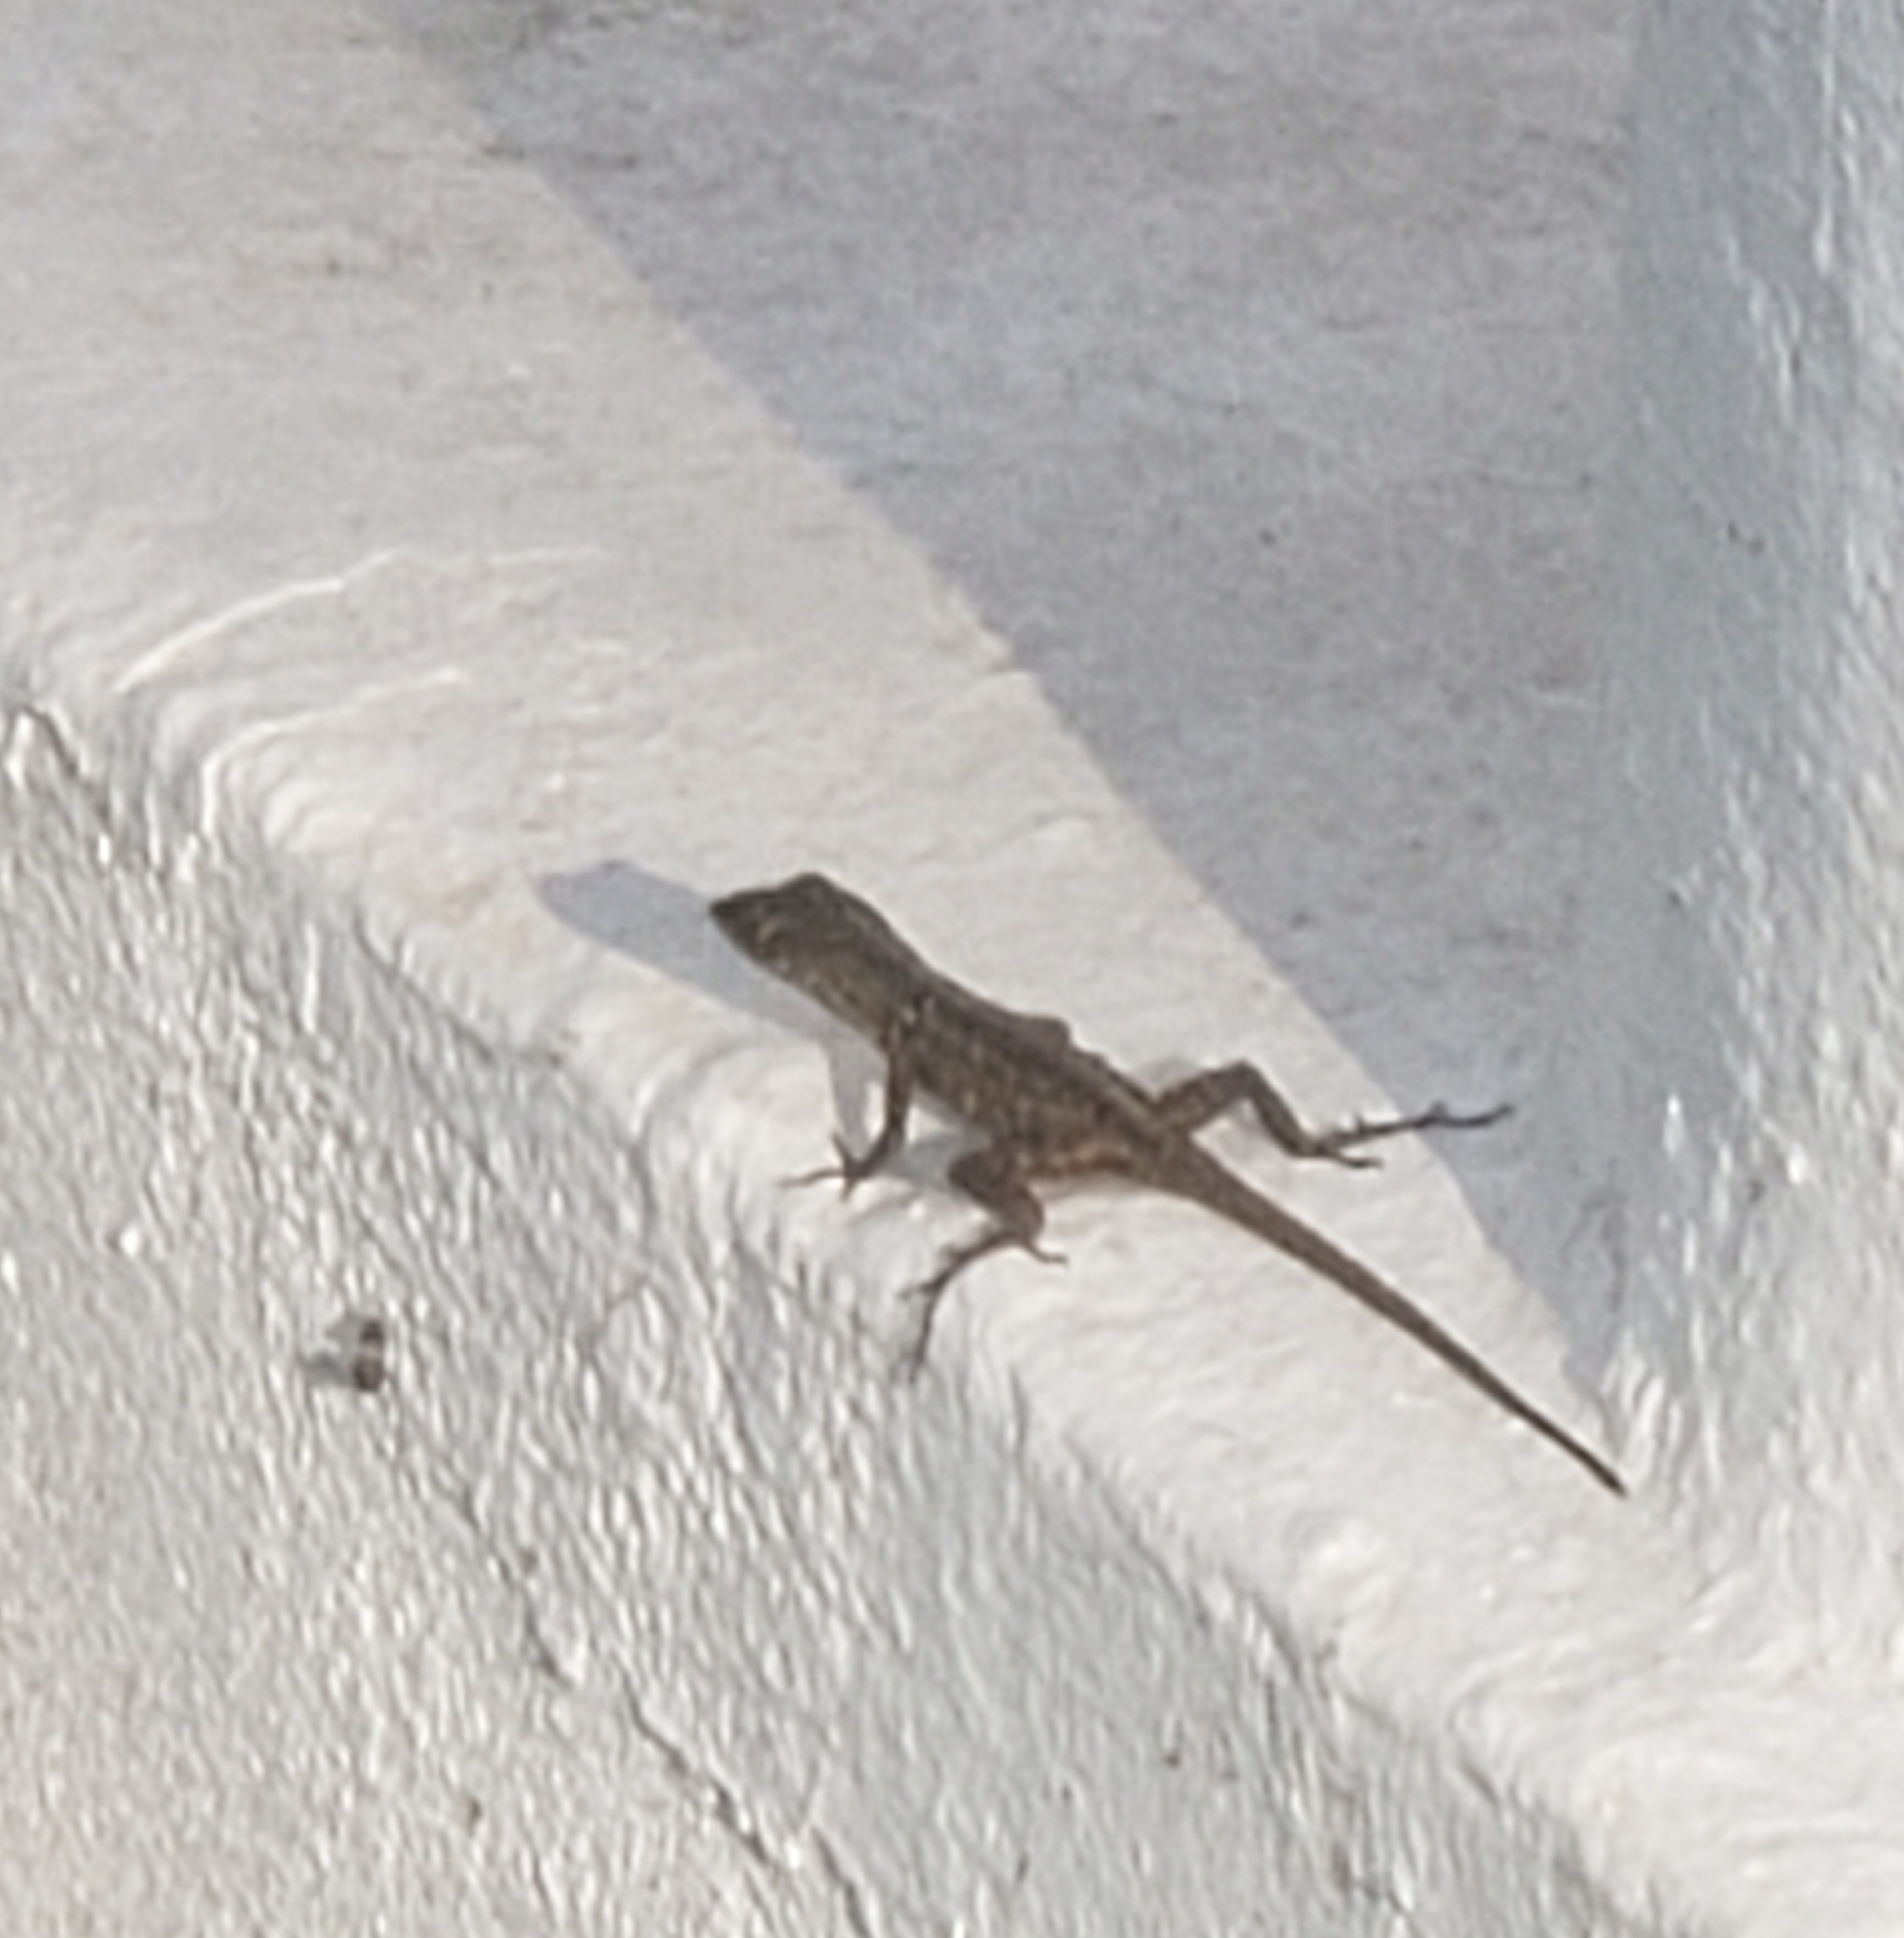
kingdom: Animalia
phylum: Chordata
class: Squamata
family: Dactyloidae
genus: Anolis
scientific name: Anolis sagrei
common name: Brown anole
